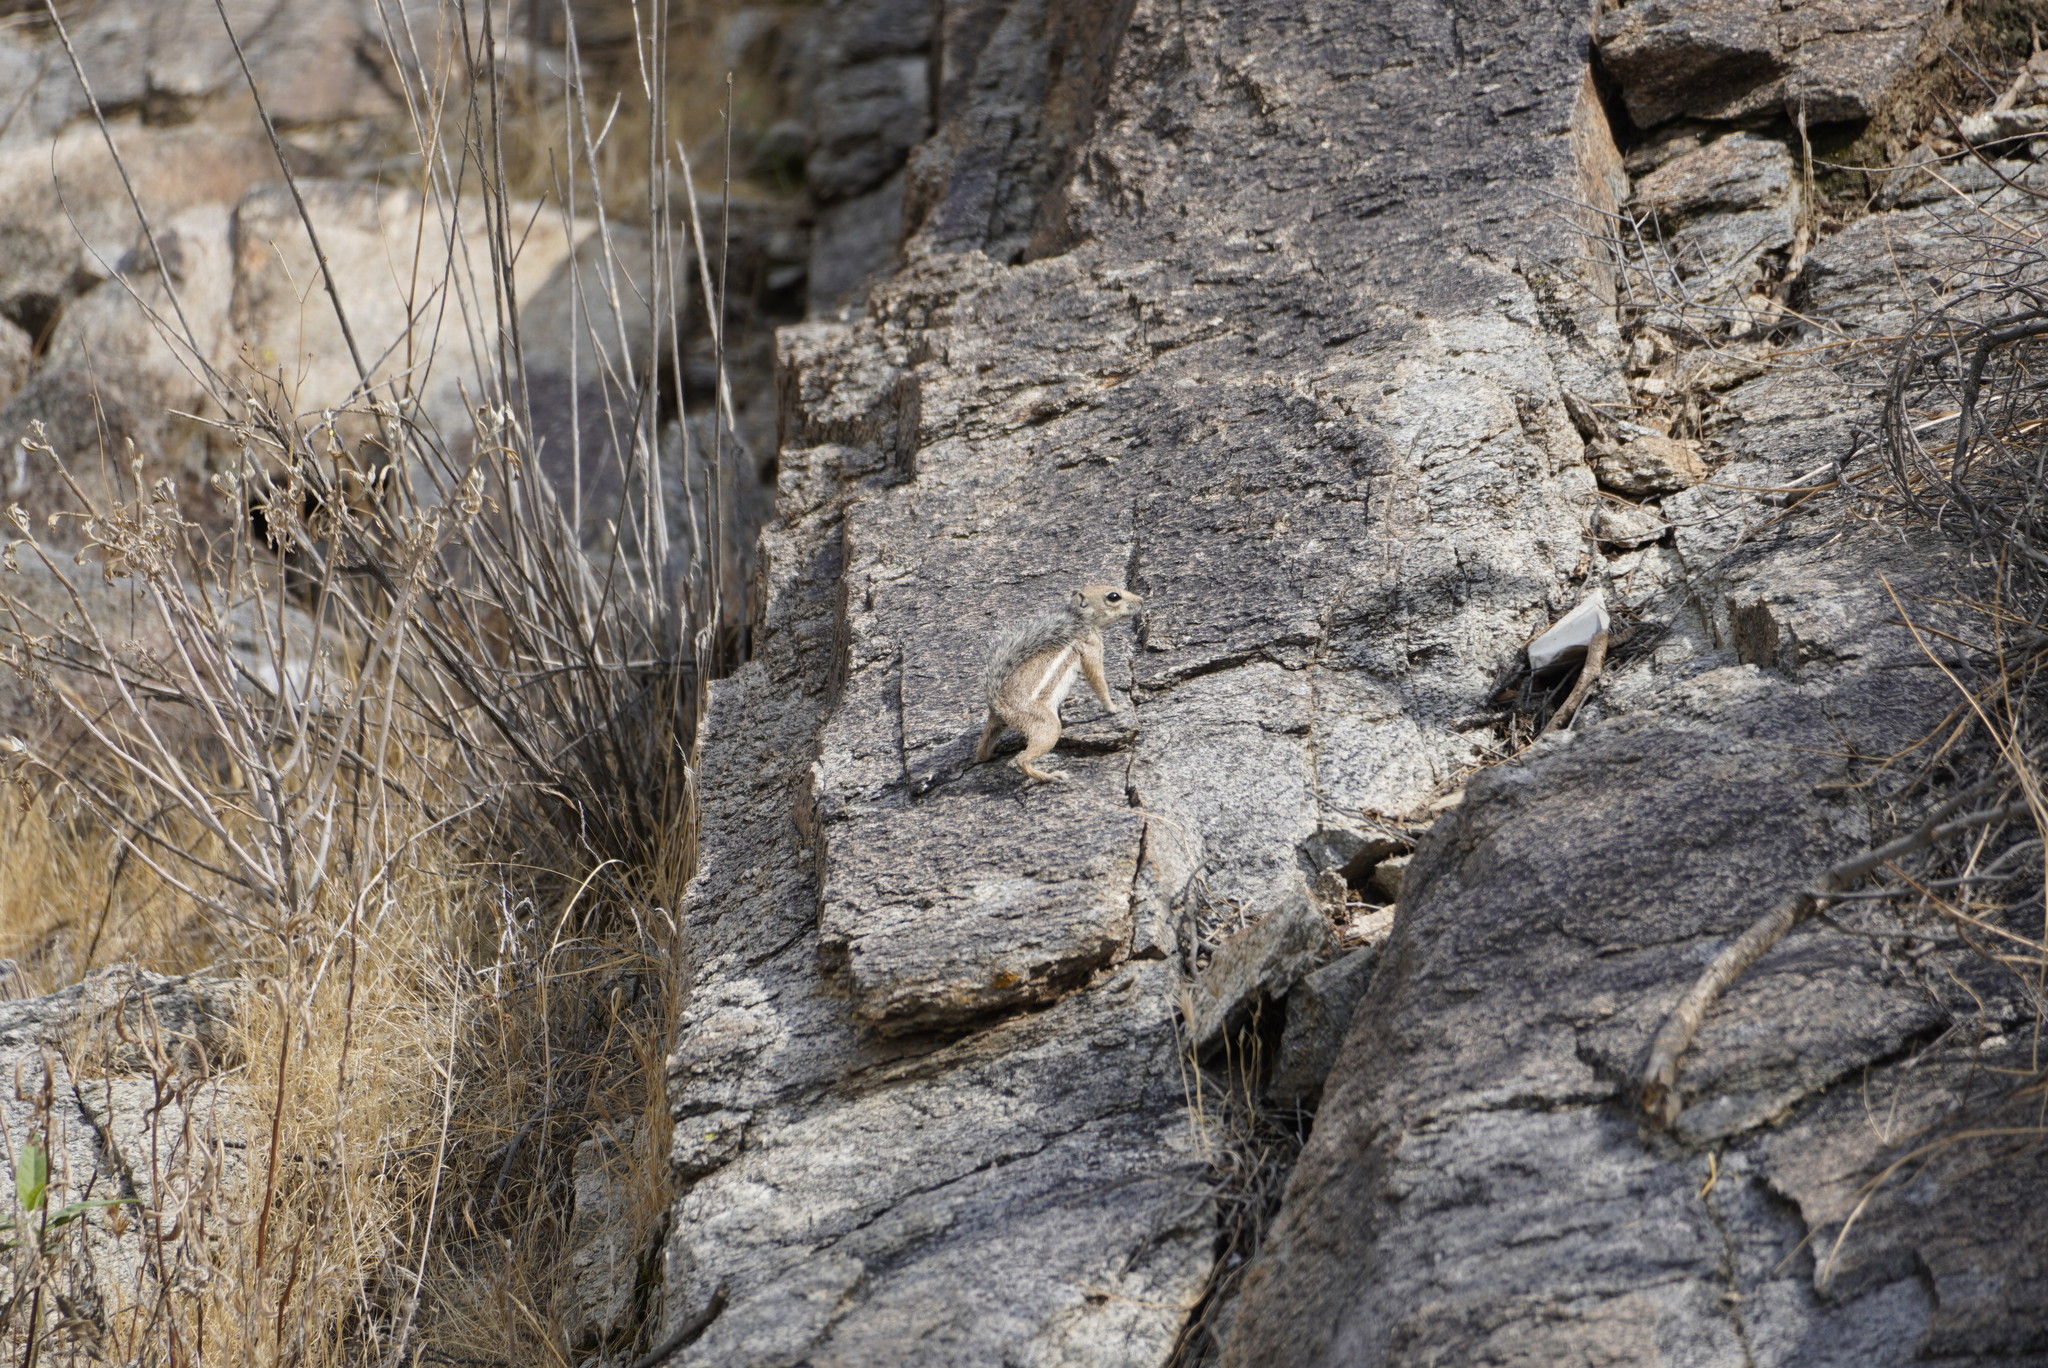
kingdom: Animalia
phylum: Chordata
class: Mammalia
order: Rodentia
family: Sciuridae
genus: Ammospermophilus
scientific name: Ammospermophilus harrisii
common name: Harris's antelope squirrel
